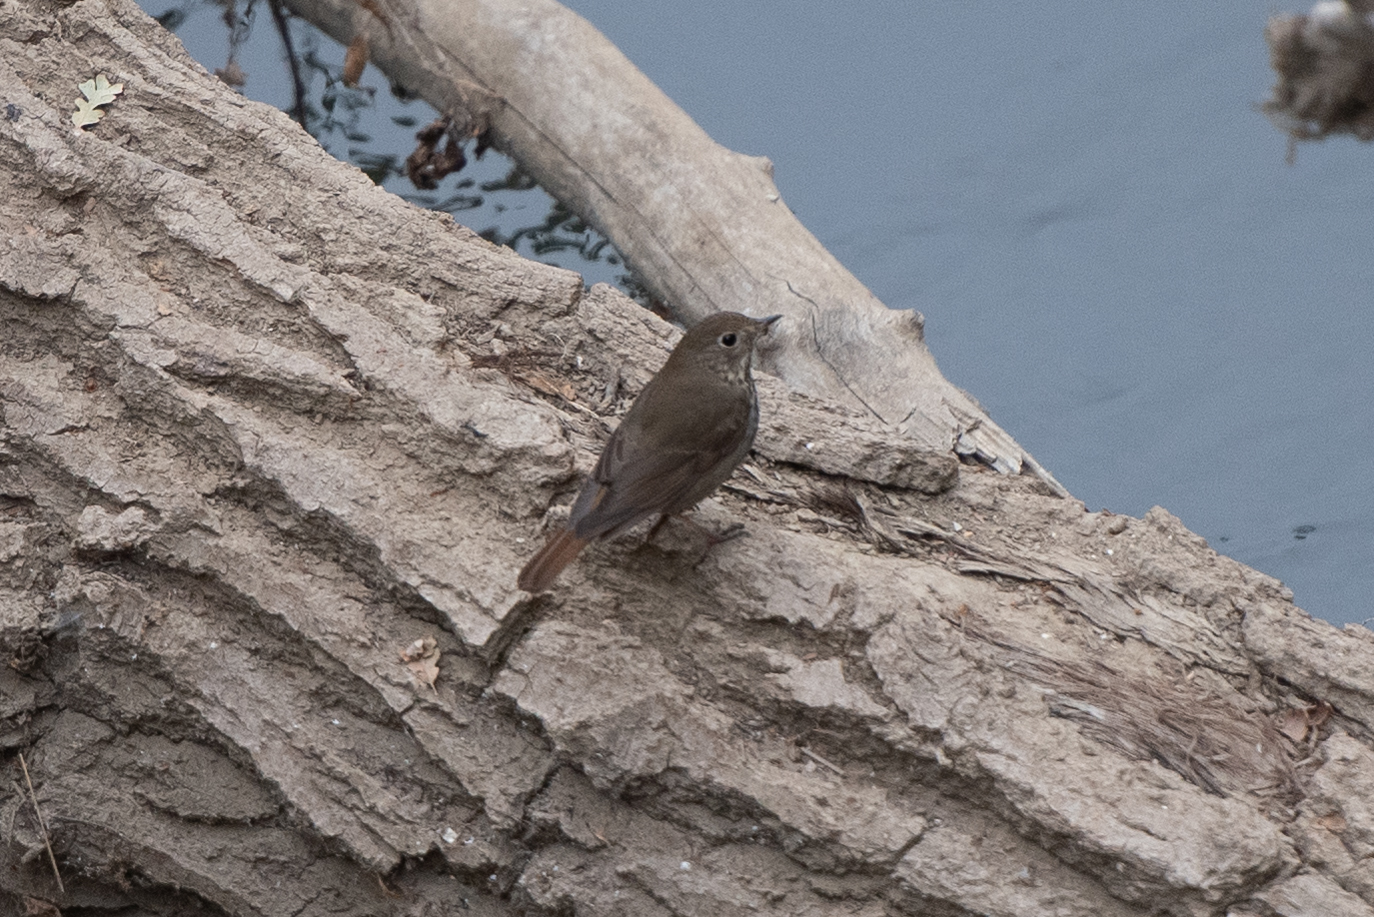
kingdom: Animalia
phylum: Chordata
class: Aves
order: Passeriformes
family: Turdidae
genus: Catharus
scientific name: Catharus guttatus
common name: Hermit thrush
